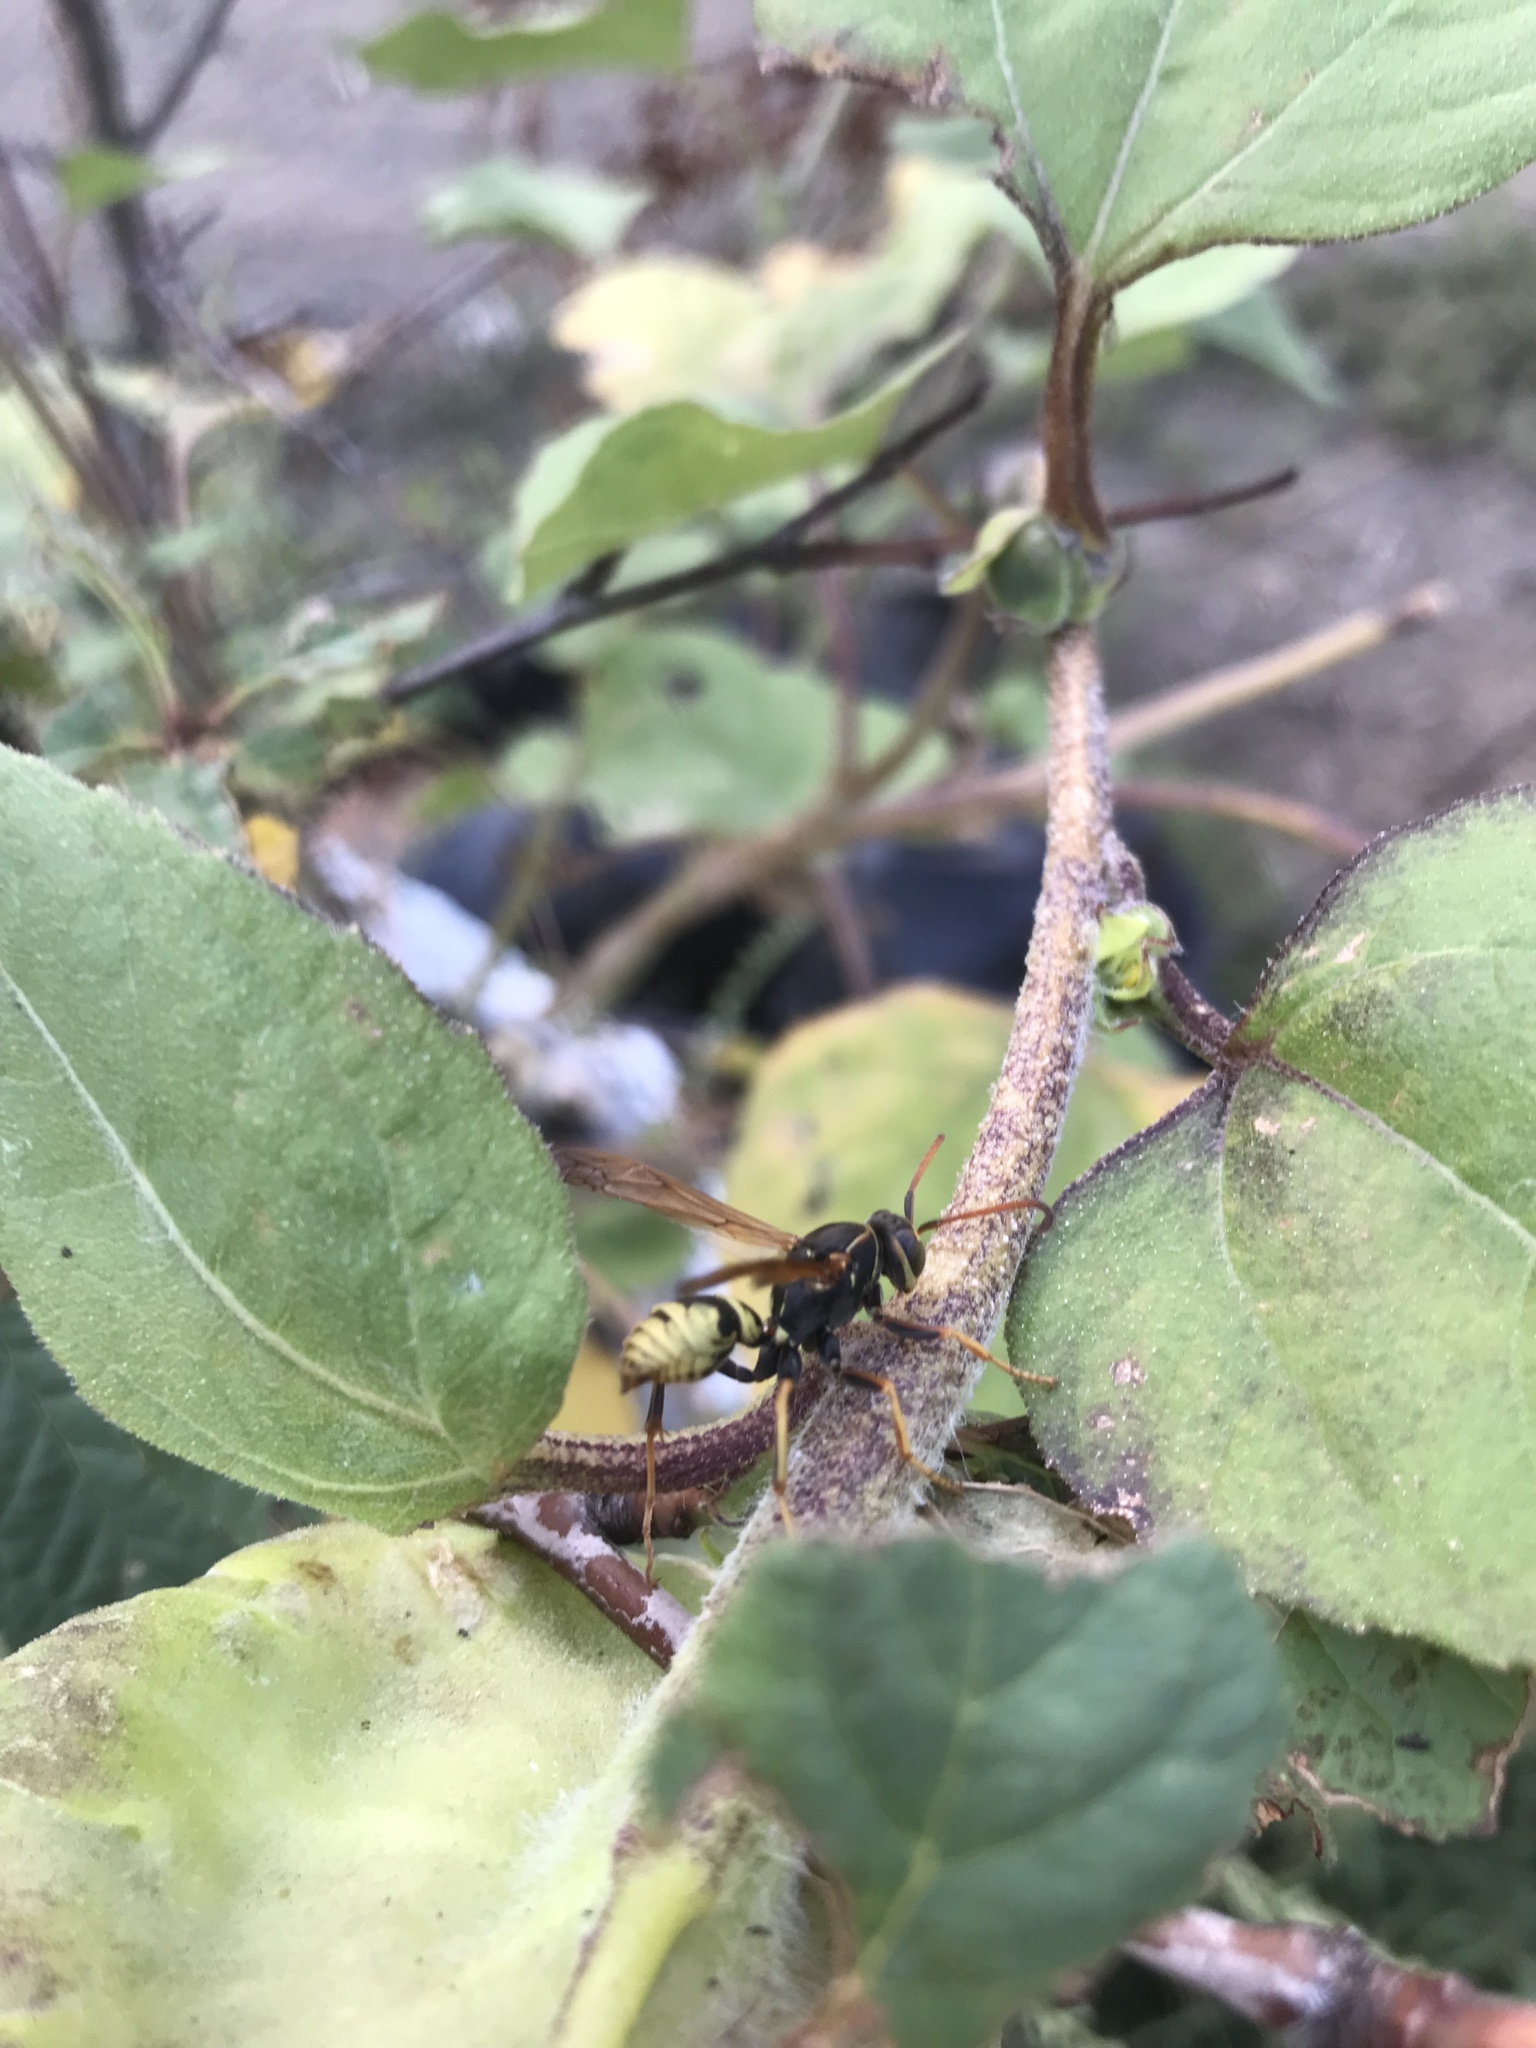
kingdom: Animalia
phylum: Arthropoda
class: Insecta
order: Hymenoptera
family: Eumenidae
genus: Polistes
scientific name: Polistes aurifer
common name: Paper wasp
